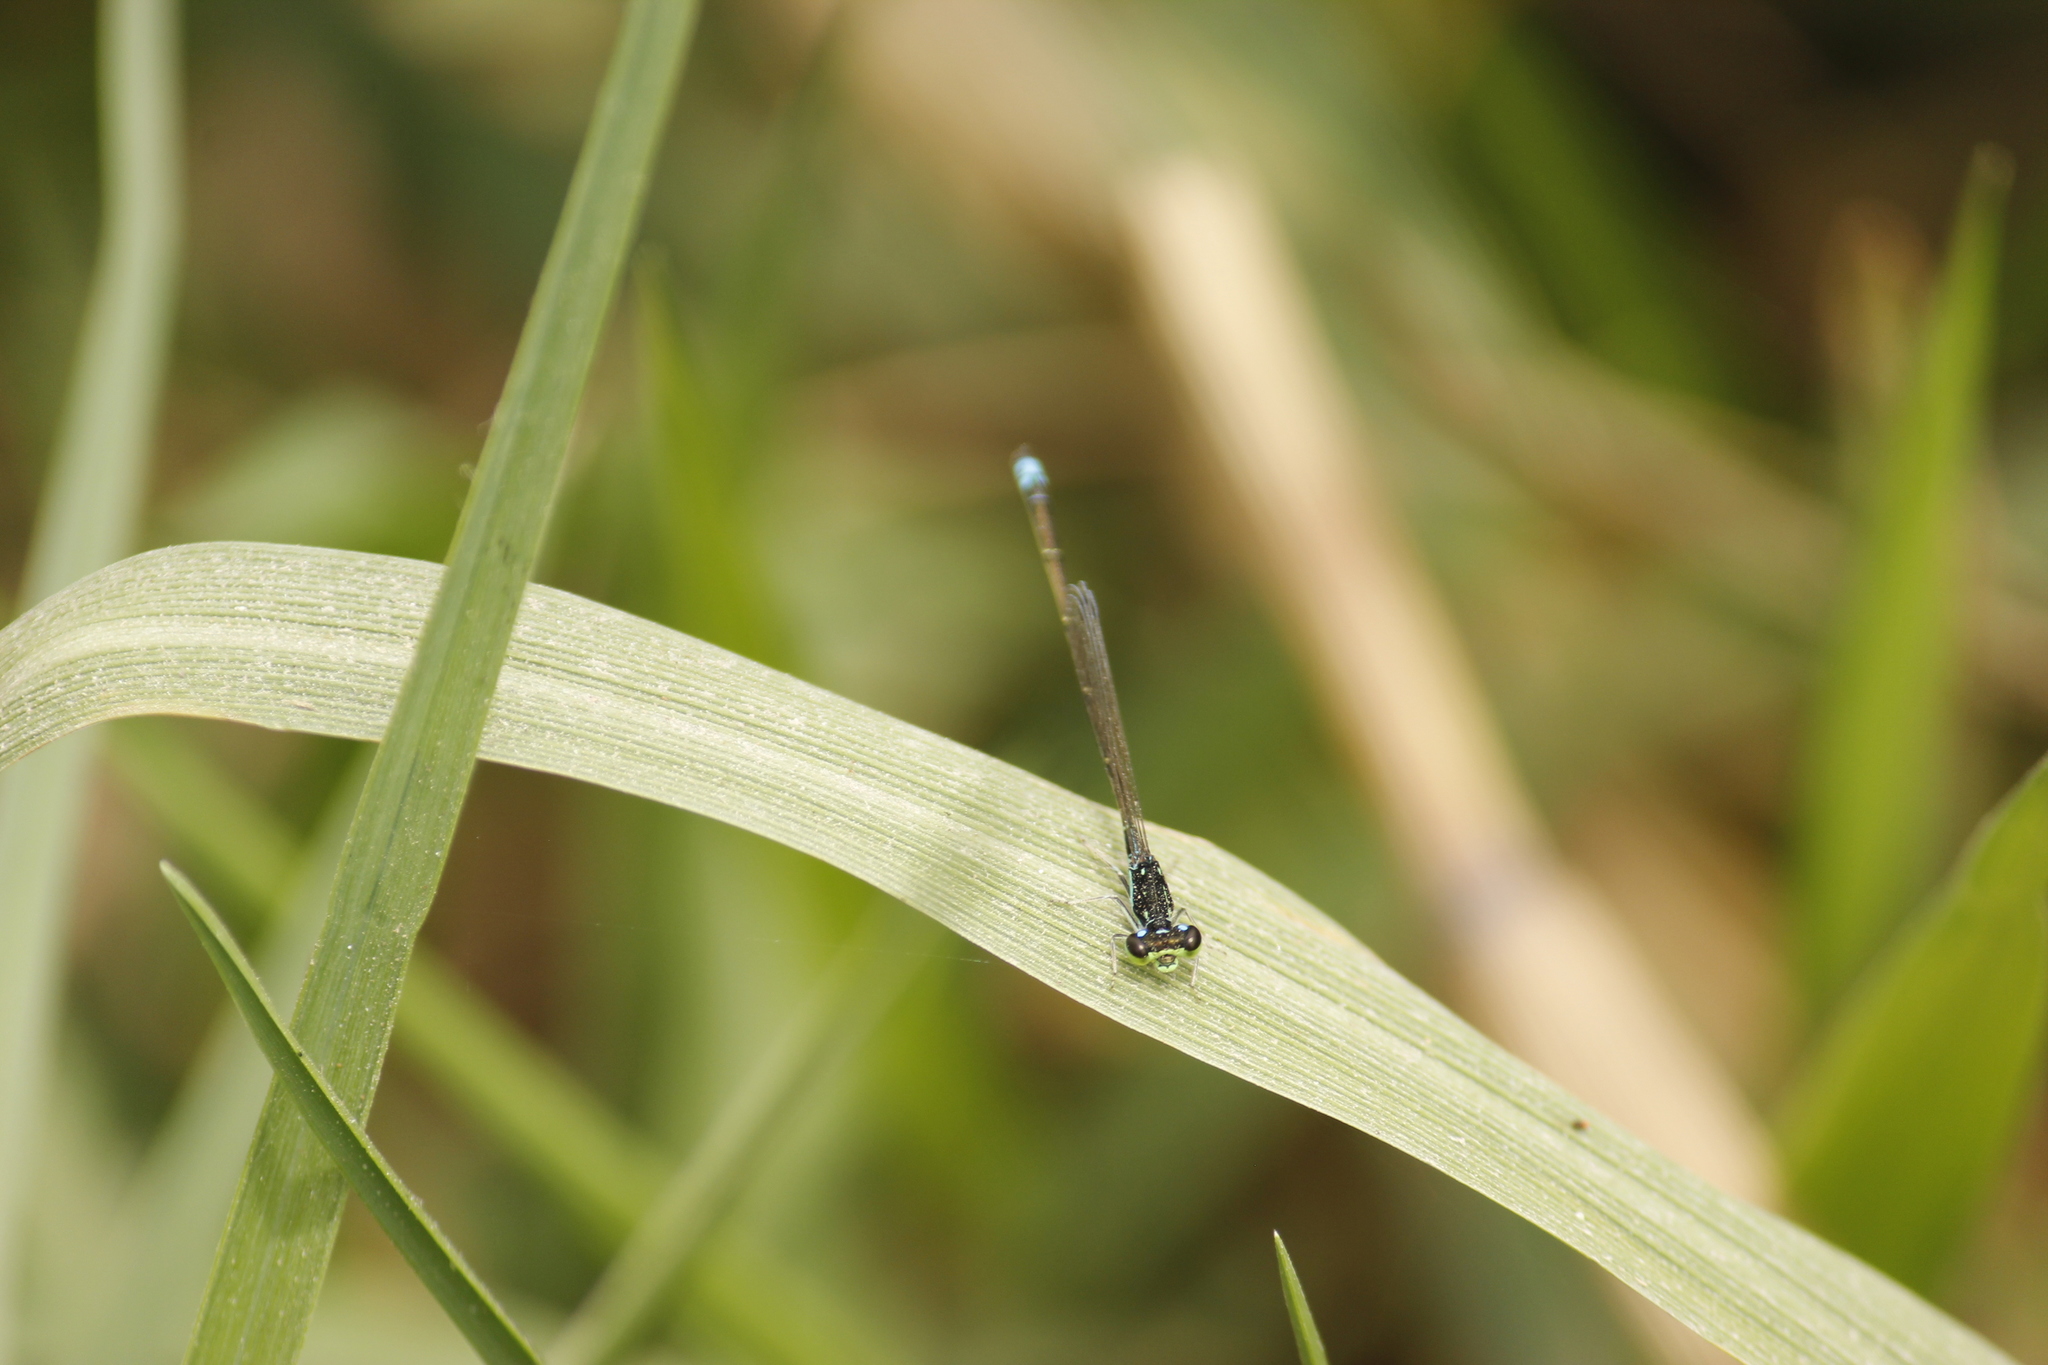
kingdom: Animalia
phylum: Arthropoda
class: Insecta
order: Odonata
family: Coenagrionidae
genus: Ischnura
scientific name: Ischnura capreolus
